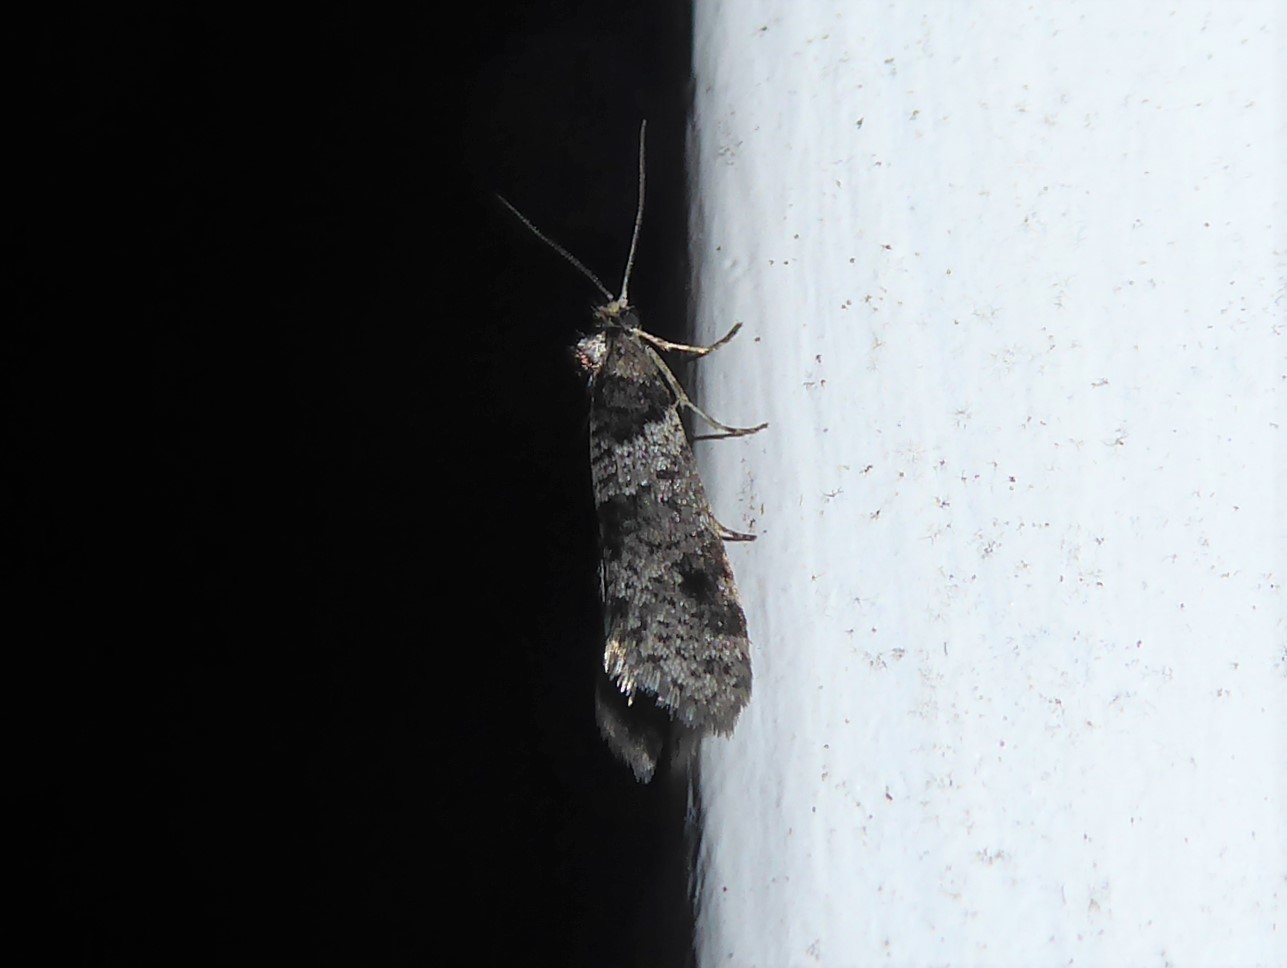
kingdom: Animalia
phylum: Arthropoda
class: Insecta
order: Lepidoptera
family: Psychidae
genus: Lepidoscia
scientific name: Lepidoscia heliochares
